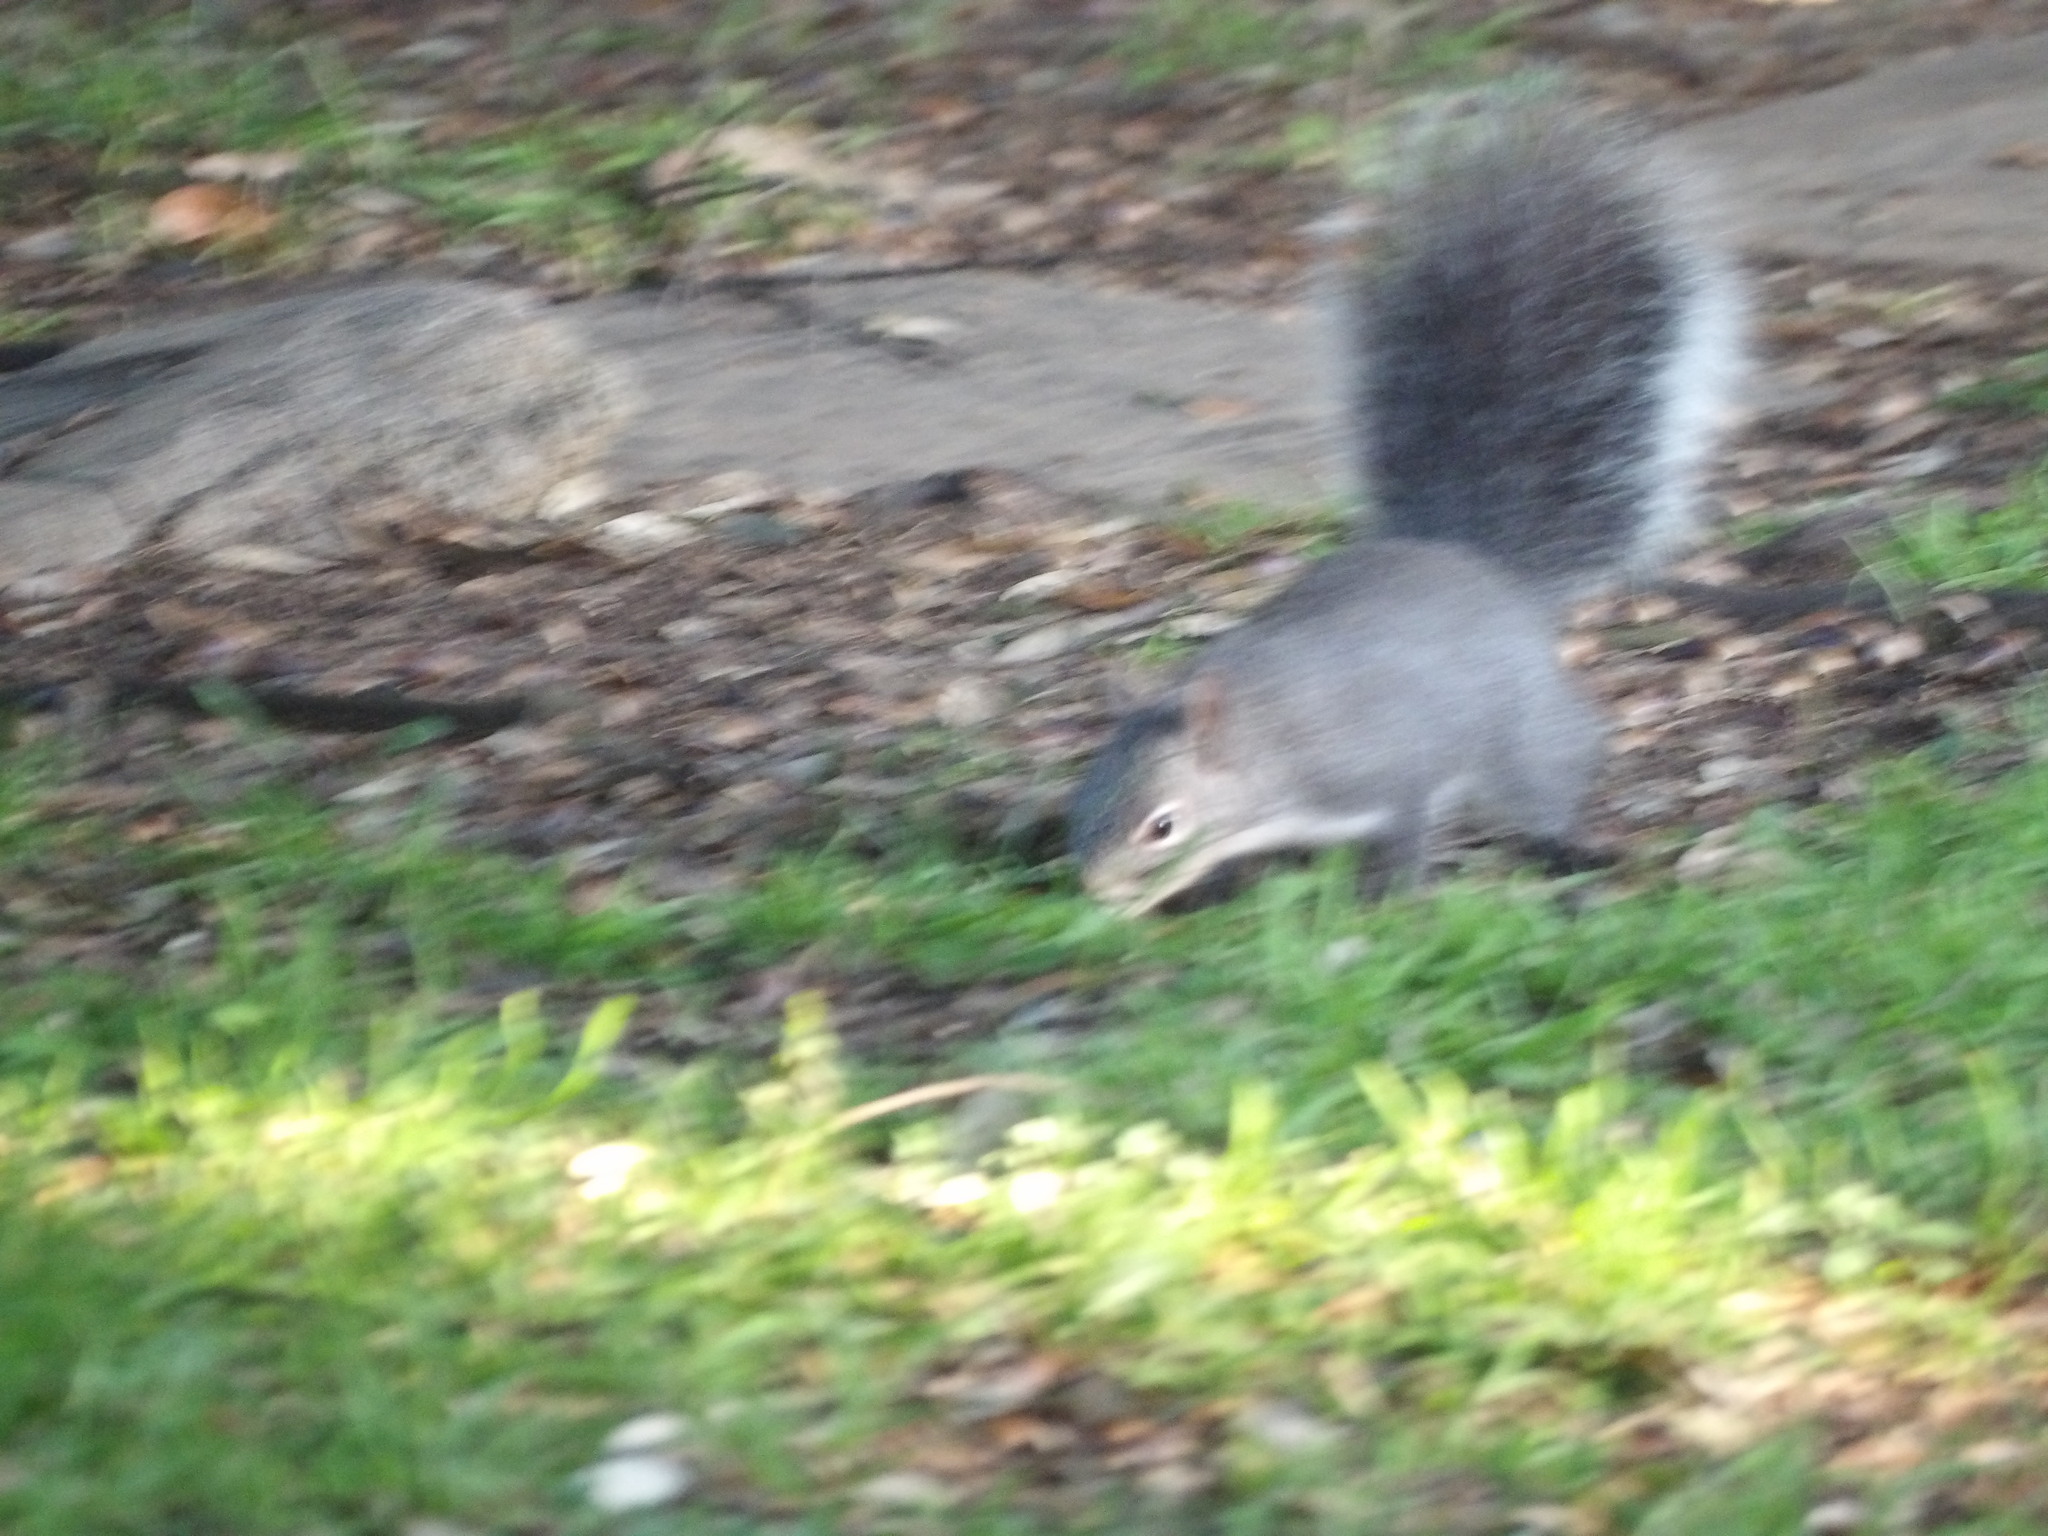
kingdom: Animalia
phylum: Chordata
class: Mammalia
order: Rodentia
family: Sciuridae
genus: Sciurus
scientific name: Sciurus griseus
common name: Western gray squirrel
